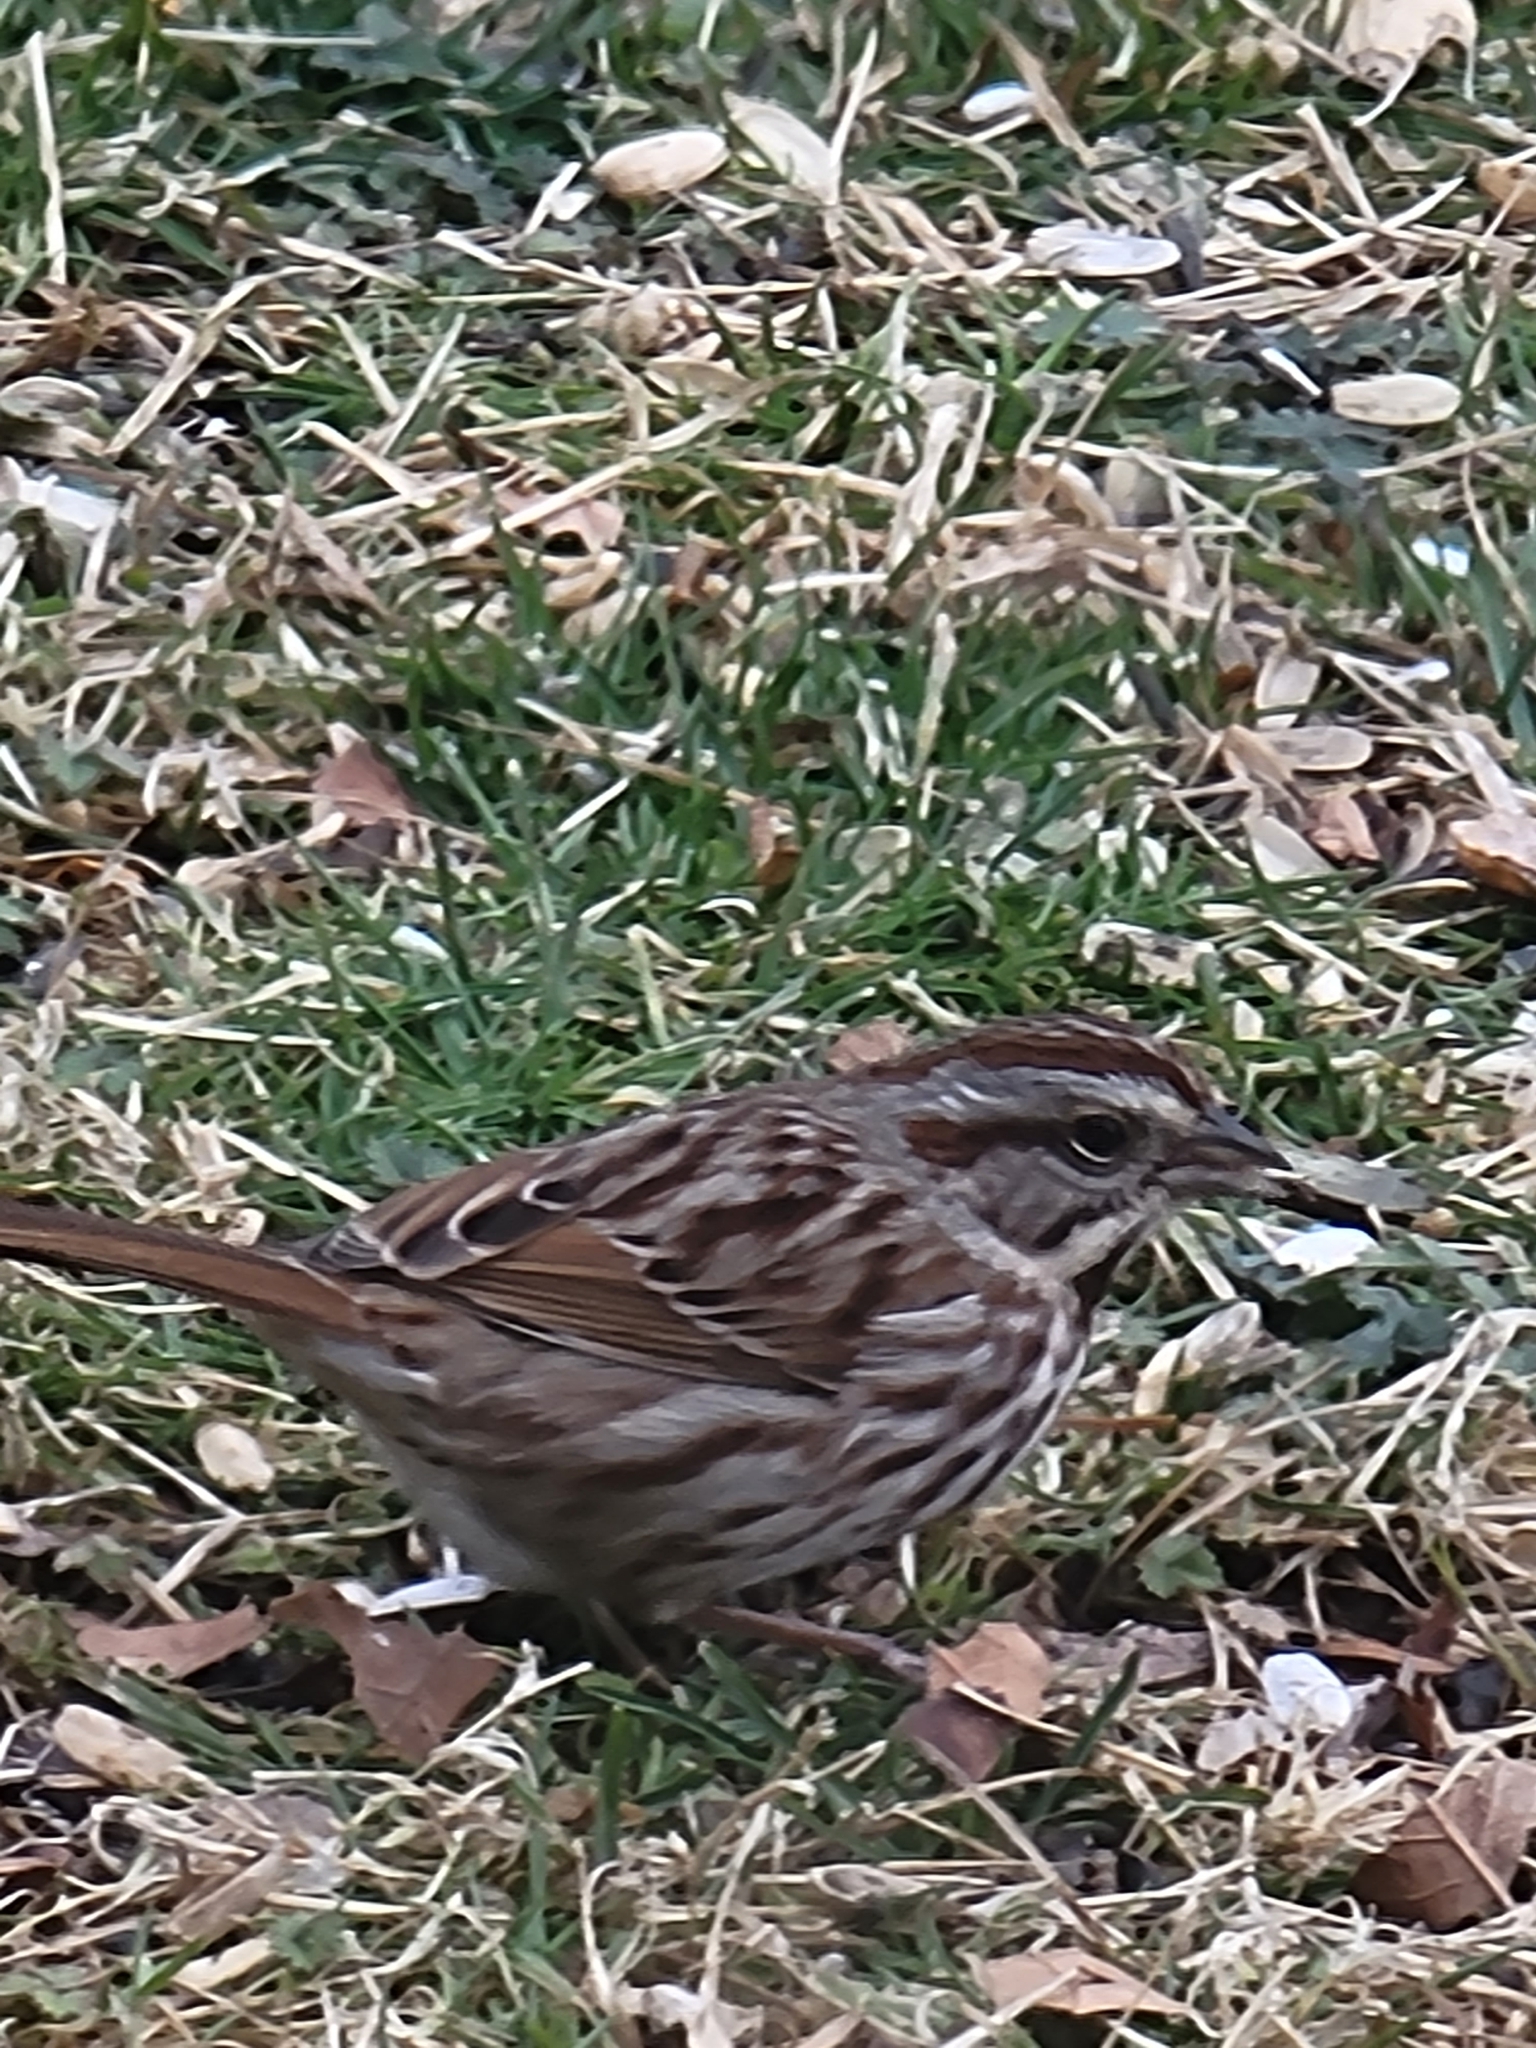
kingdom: Animalia
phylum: Chordata
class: Aves
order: Passeriformes
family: Passerellidae
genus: Melospiza
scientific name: Melospiza melodia
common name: Song sparrow
